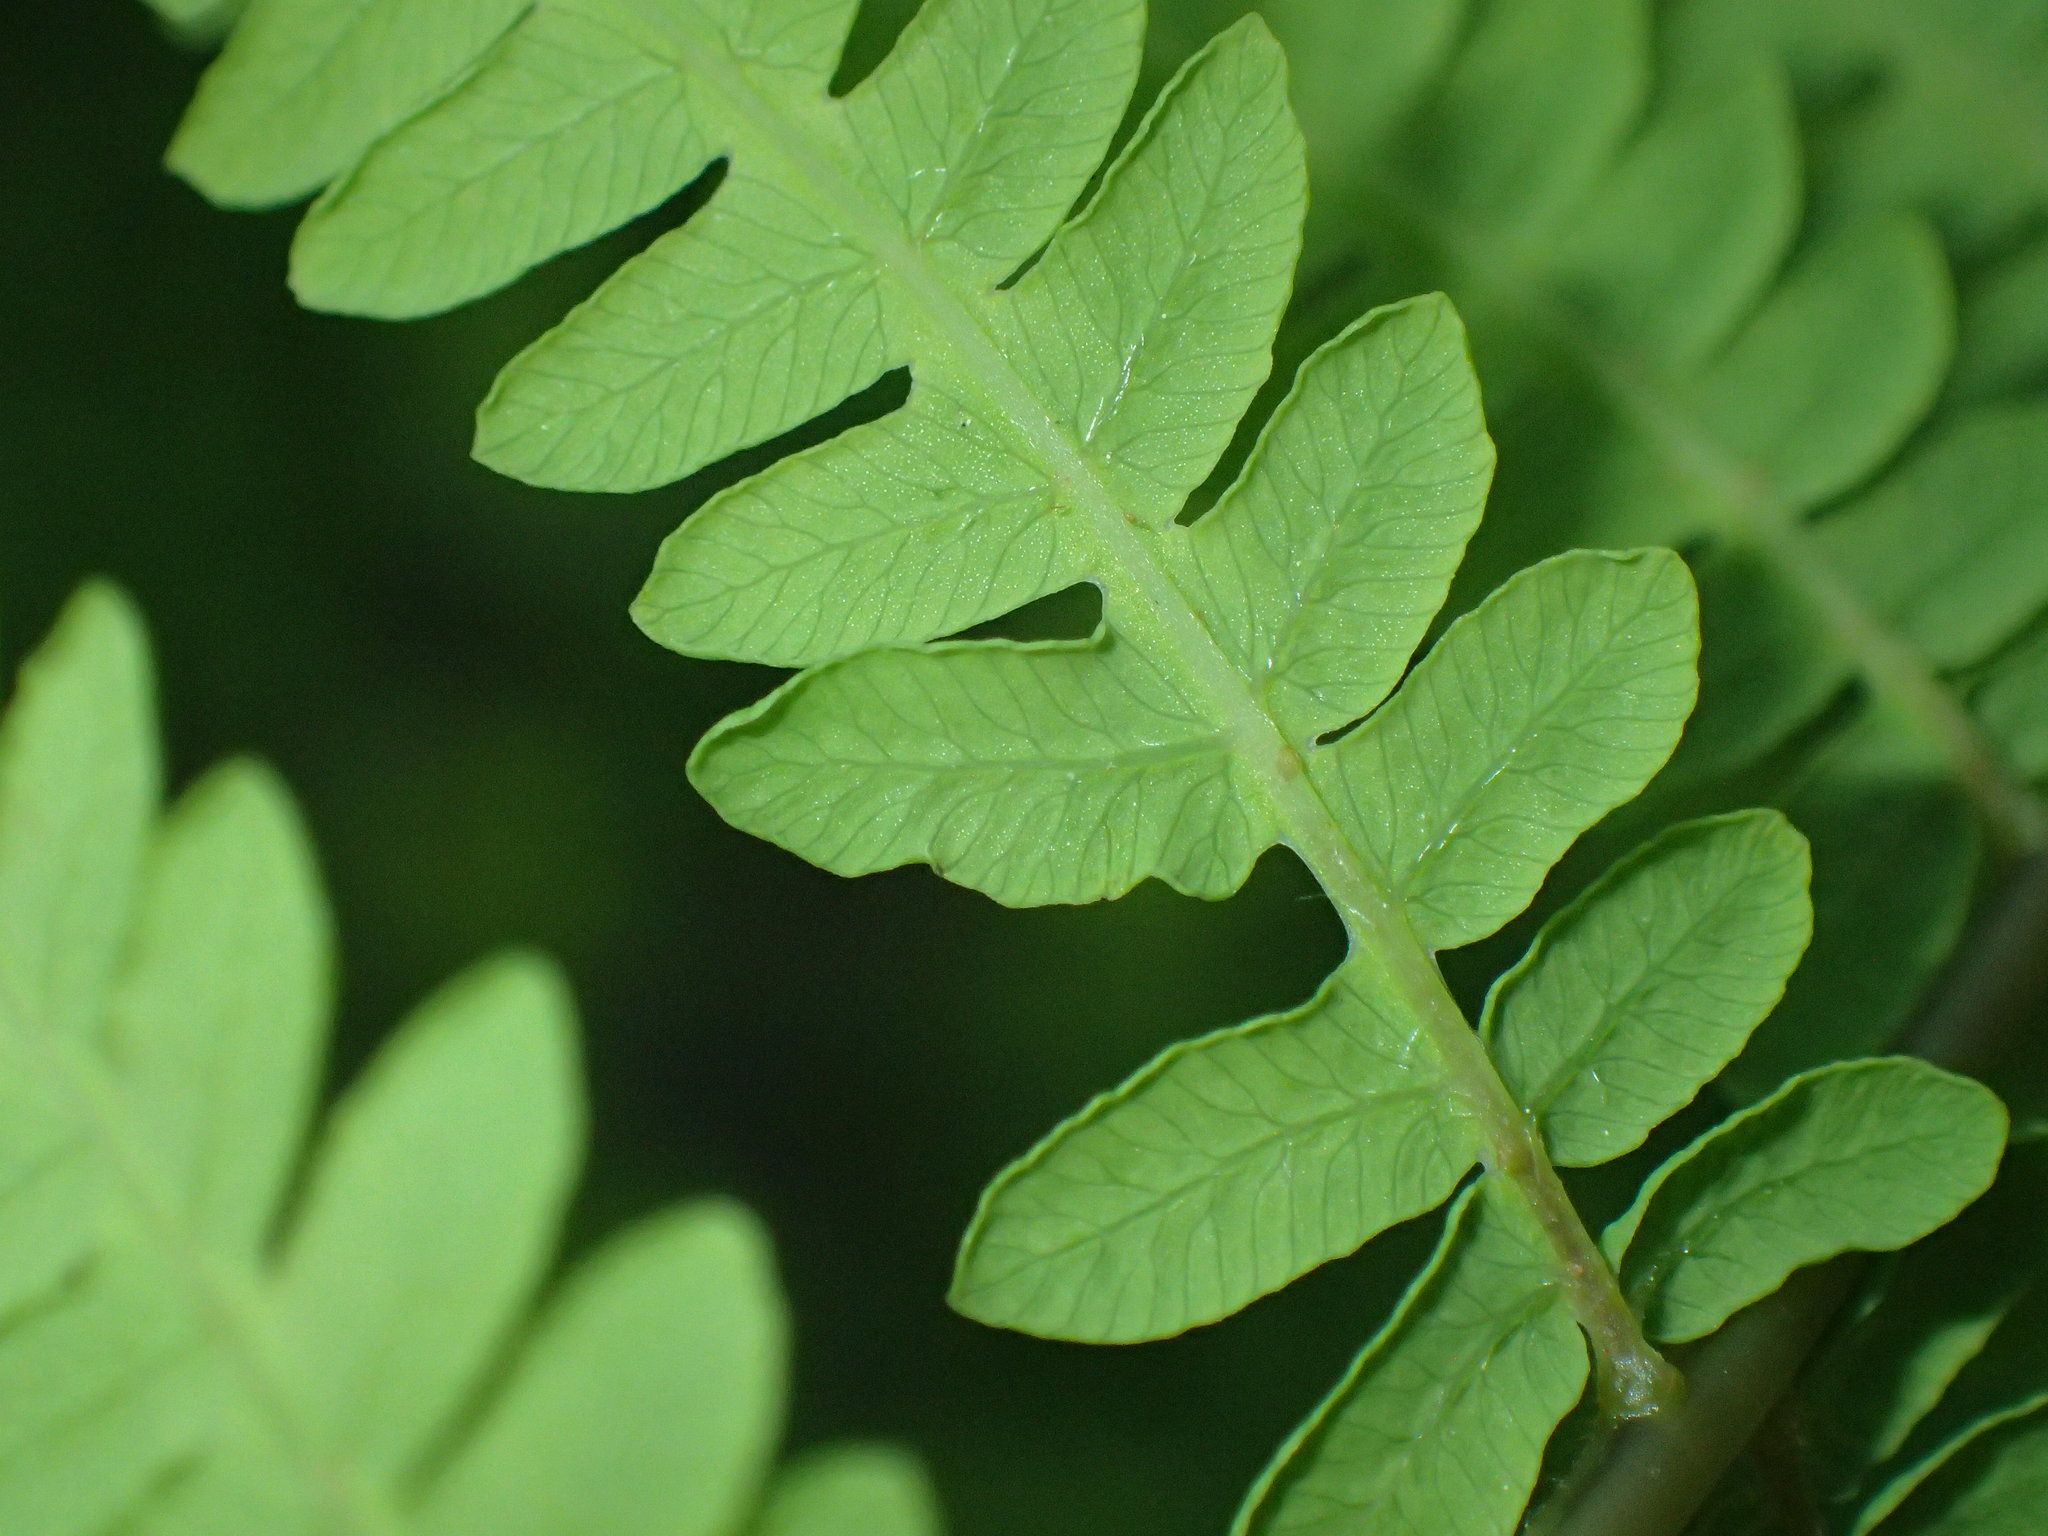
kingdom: Plantae
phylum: Tracheophyta
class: Polypodiopsida
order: Polypodiales
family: Thelypteridaceae
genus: Thelypteris
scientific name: Thelypteris palustris
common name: Marsh fern
